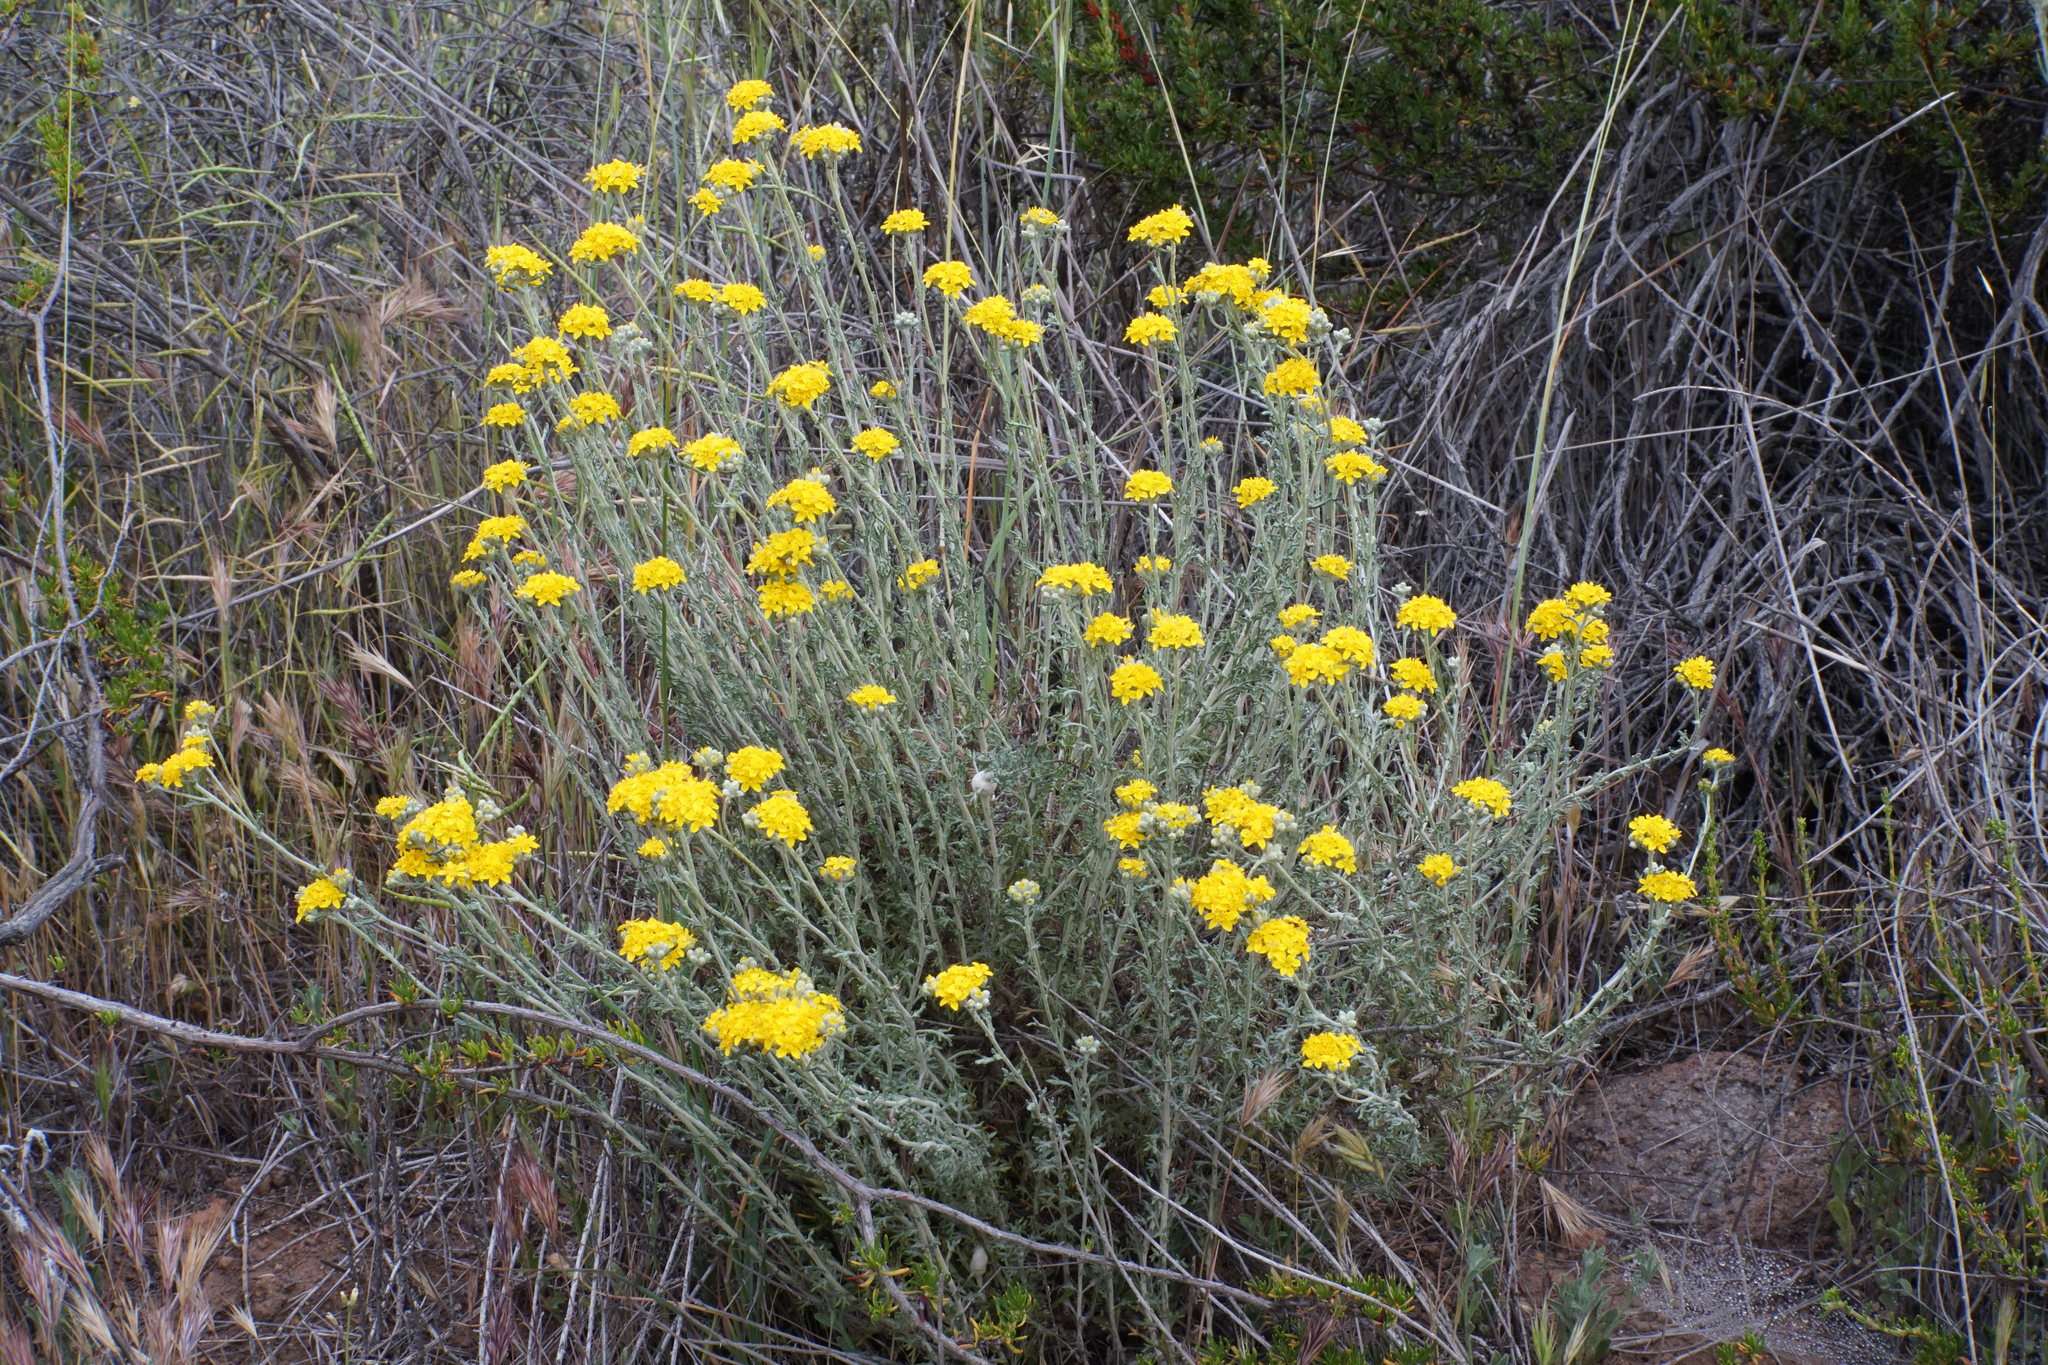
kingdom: Plantae
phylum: Tracheophyta
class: Magnoliopsida
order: Asterales
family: Asteraceae
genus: Eriophyllum
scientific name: Eriophyllum confertiflorum
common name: Golden-yarrow
